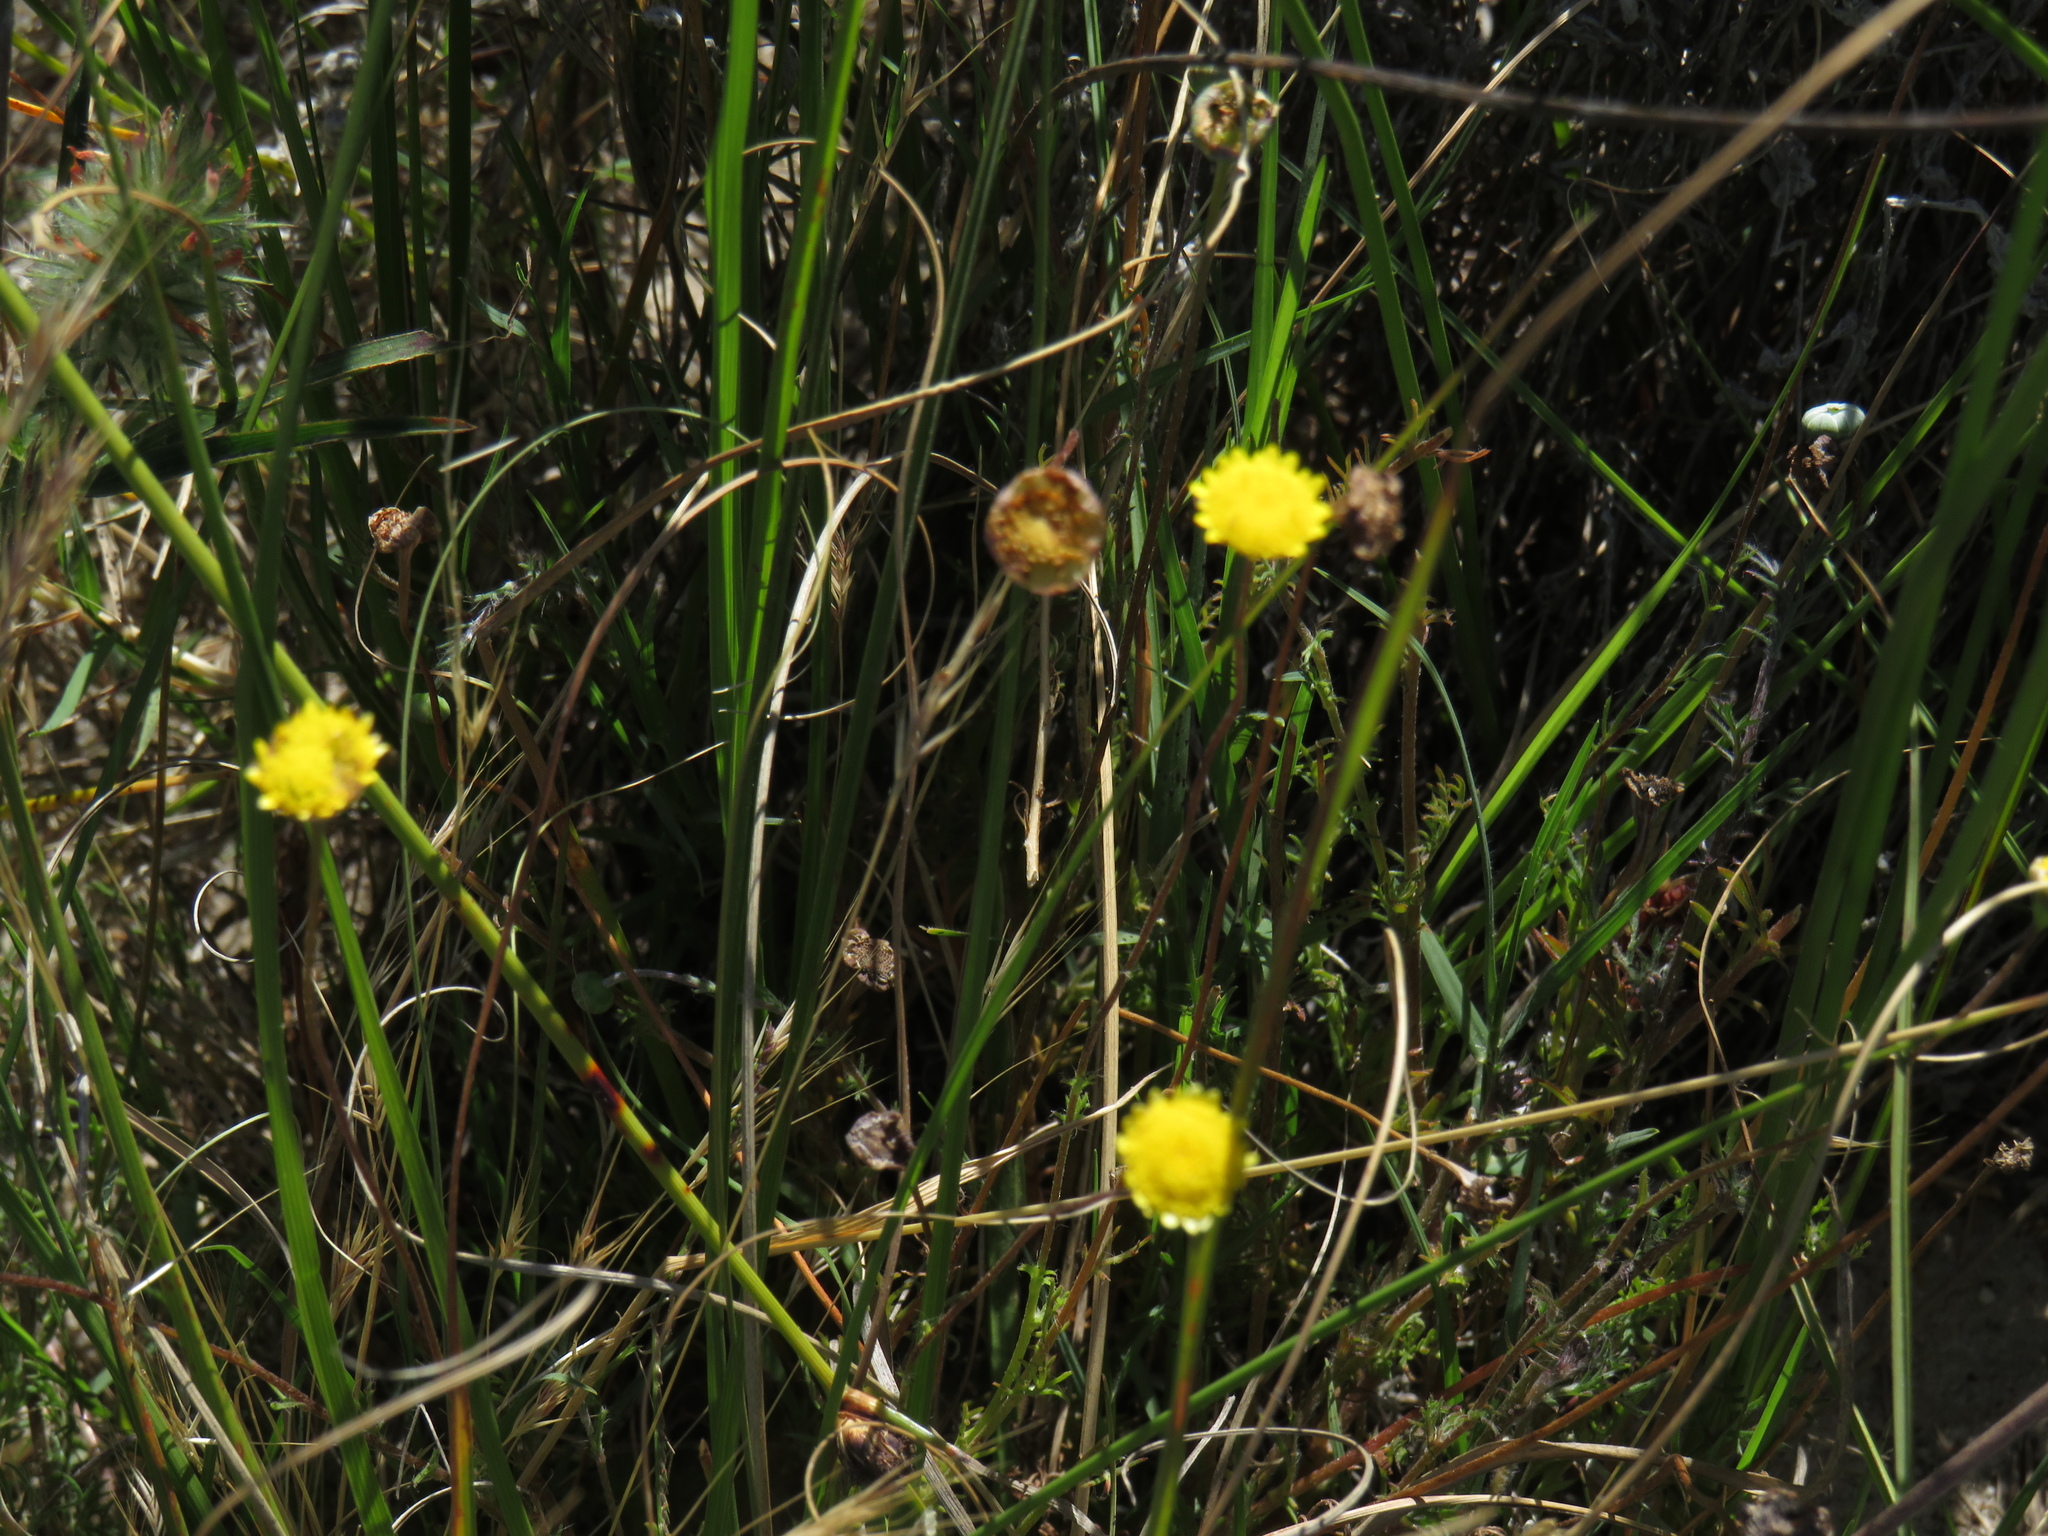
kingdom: Plantae
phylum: Tracheophyta
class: Magnoliopsida
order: Asterales
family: Asteraceae
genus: Cotula
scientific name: Cotula pruinosa
